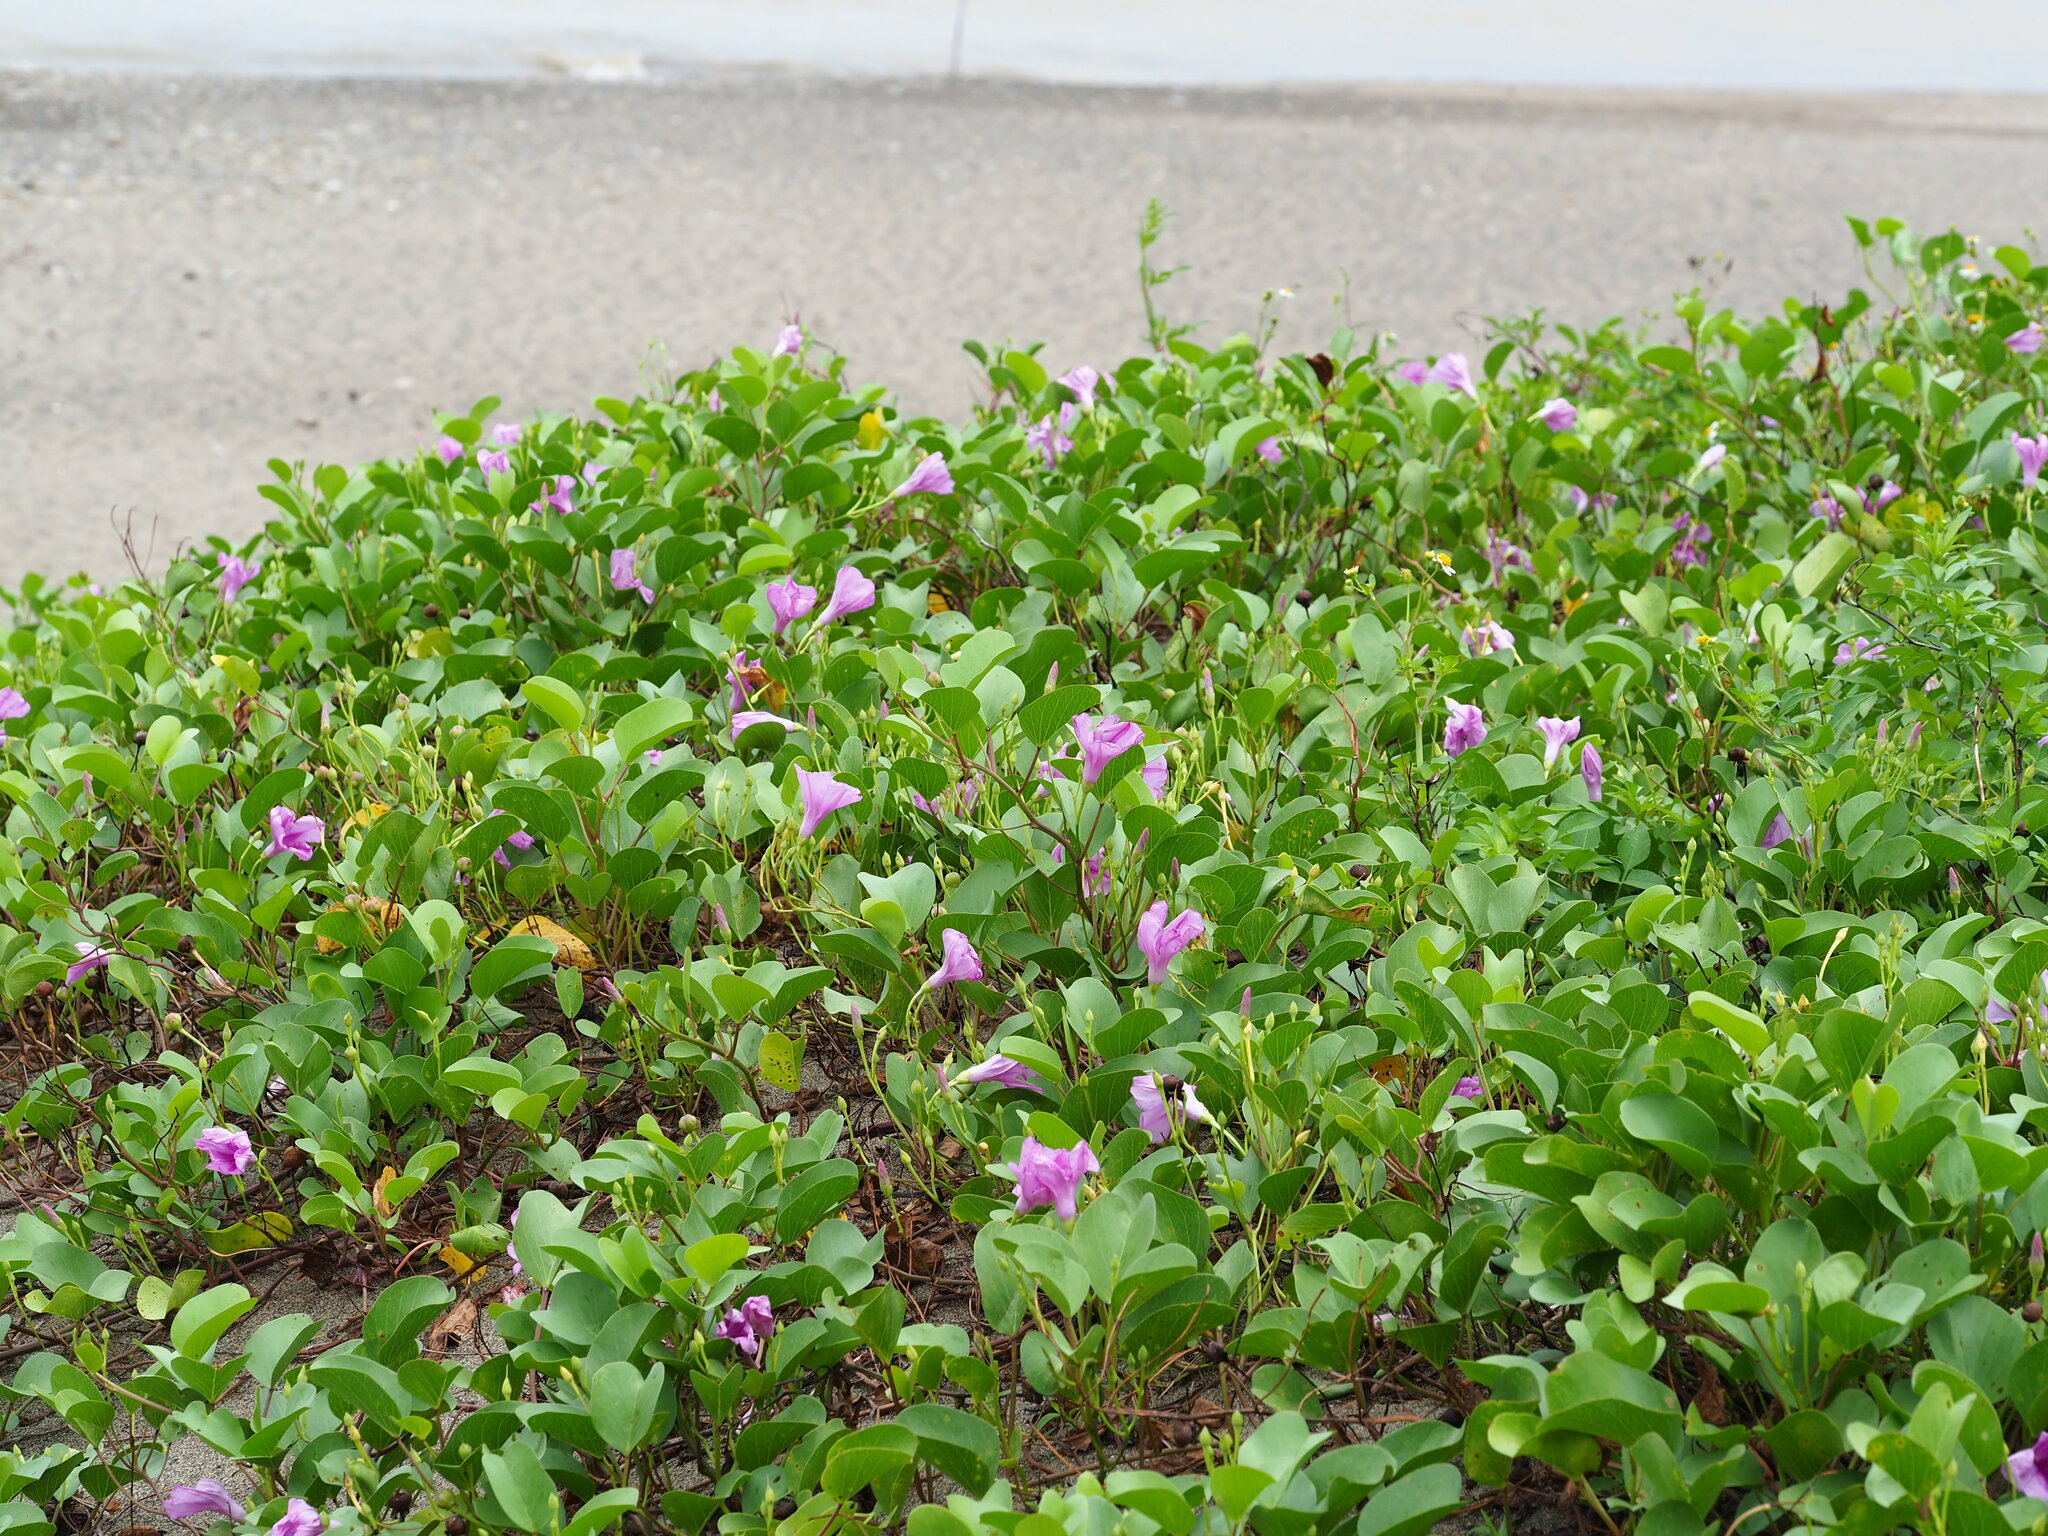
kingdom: Plantae
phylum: Tracheophyta
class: Magnoliopsida
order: Solanales
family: Convolvulaceae
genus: Ipomoea
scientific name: Ipomoea pes-caprae
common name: Beach morning glory
